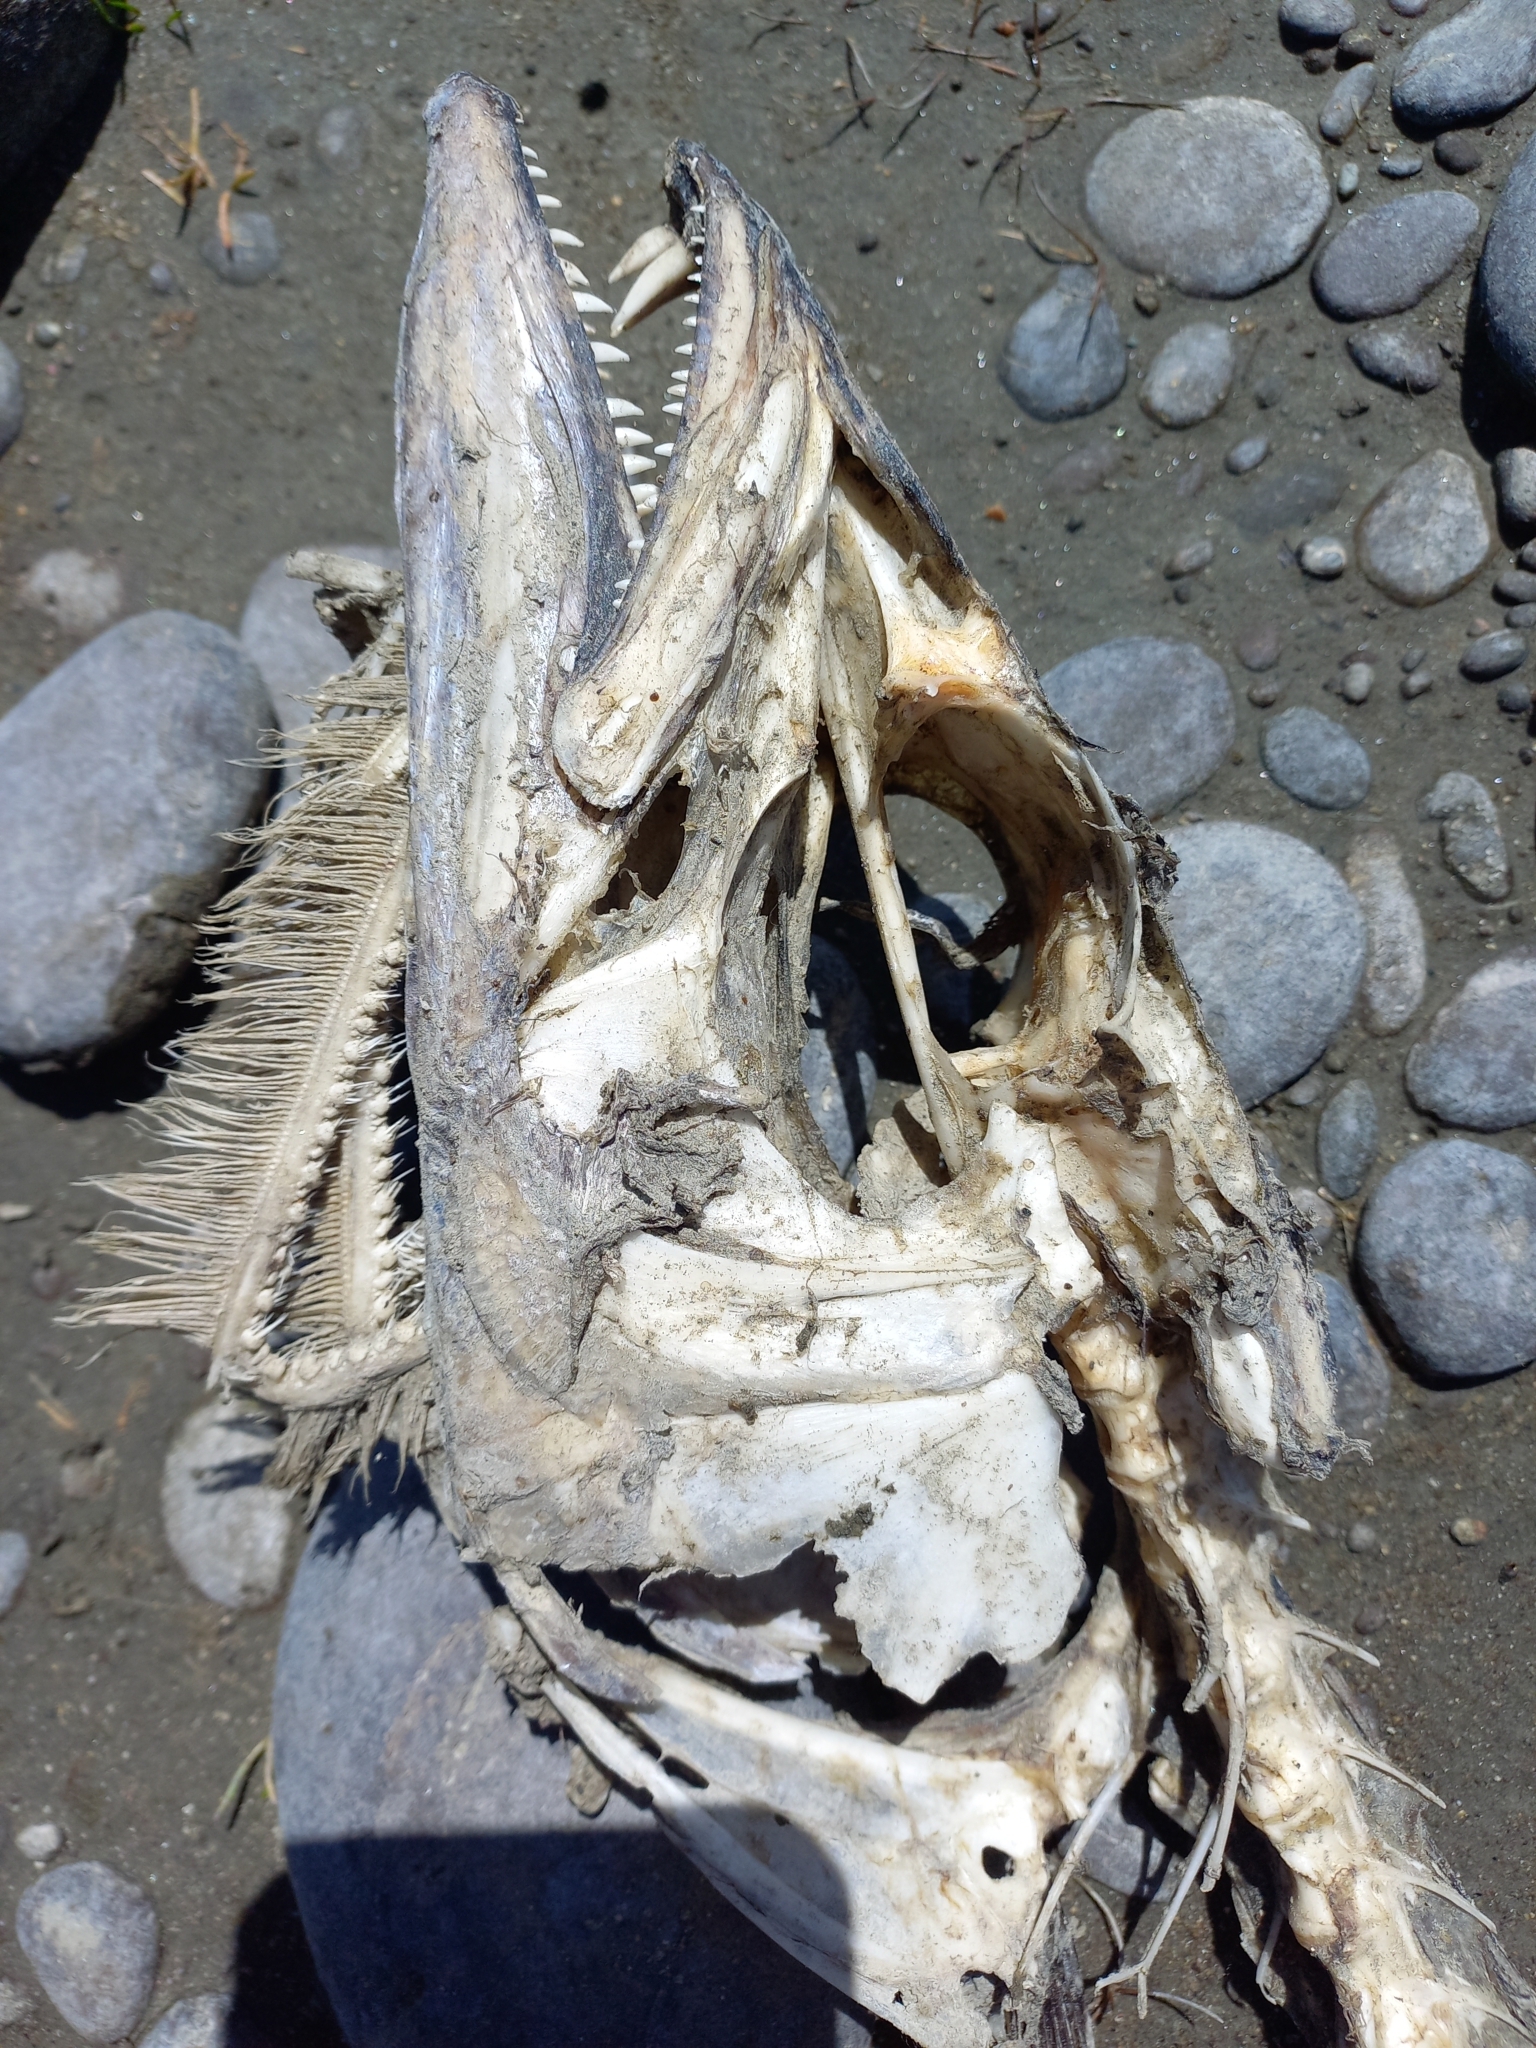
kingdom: Animalia
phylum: Chordata
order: Perciformes
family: Gempylidae
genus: Thyrsites
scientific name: Thyrsites atun
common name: Snoek
